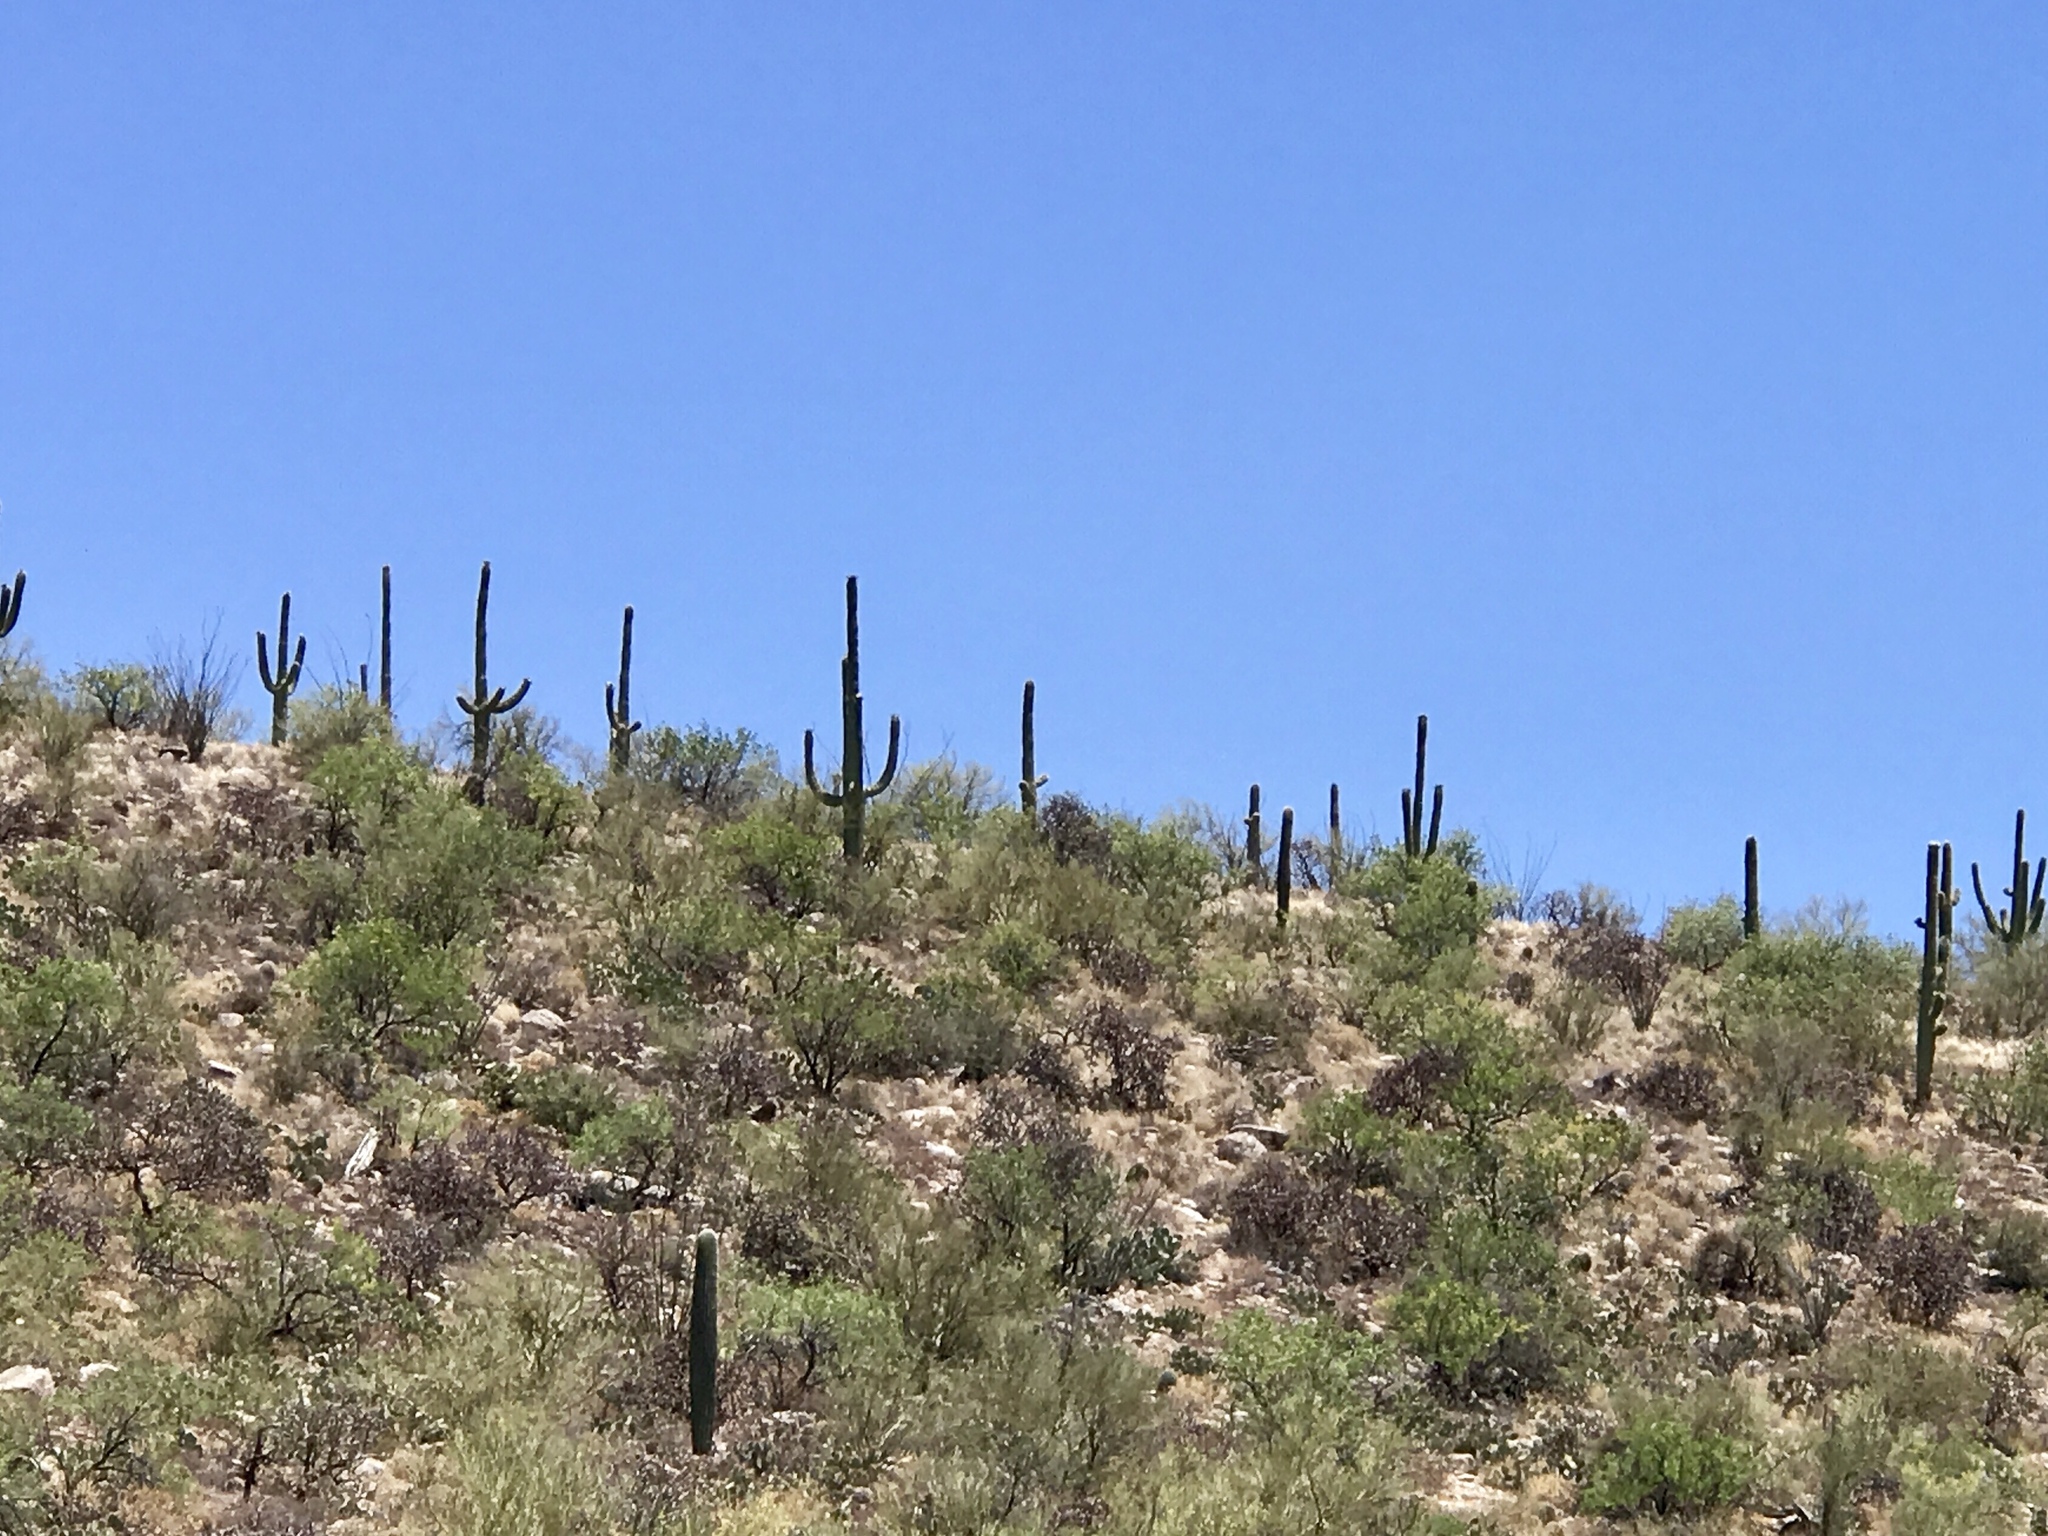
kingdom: Plantae
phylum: Tracheophyta
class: Magnoliopsida
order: Caryophyllales
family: Cactaceae
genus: Carnegiea
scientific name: Carnegiea gigantea
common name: Saguaro
